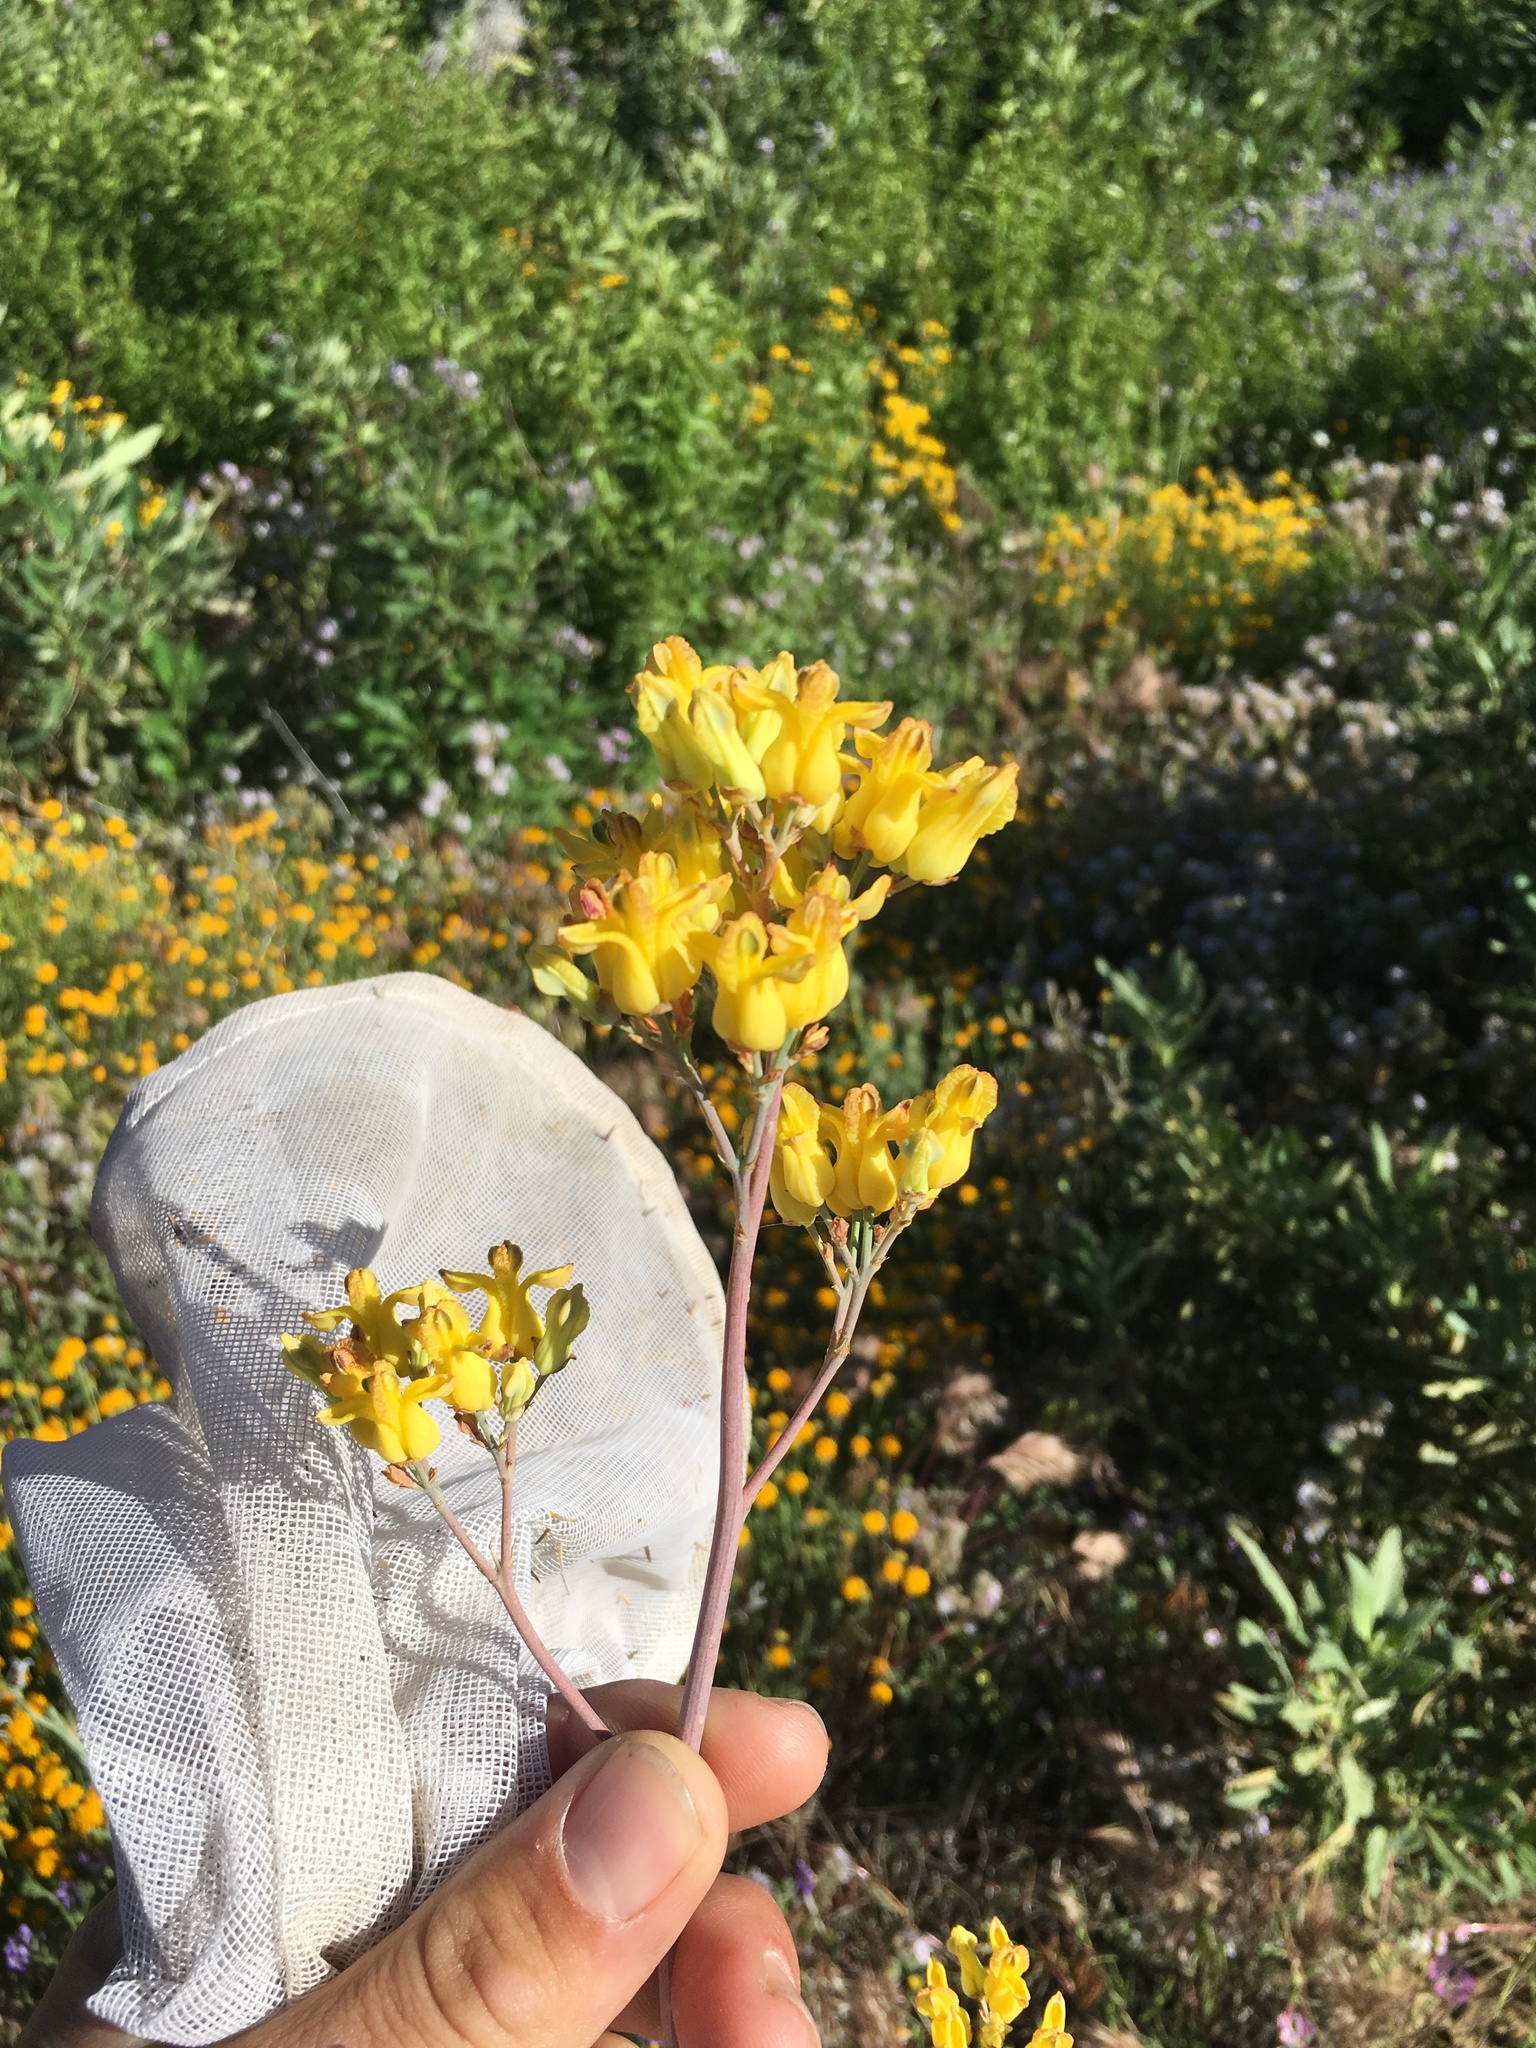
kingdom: Plantae
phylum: Tracheophyta
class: Magnoliopsida
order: Ranunculales
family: Papaveraceae
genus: Ehrendorferia
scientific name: Ehrendorferia chrysantha
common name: Golden eardrops
